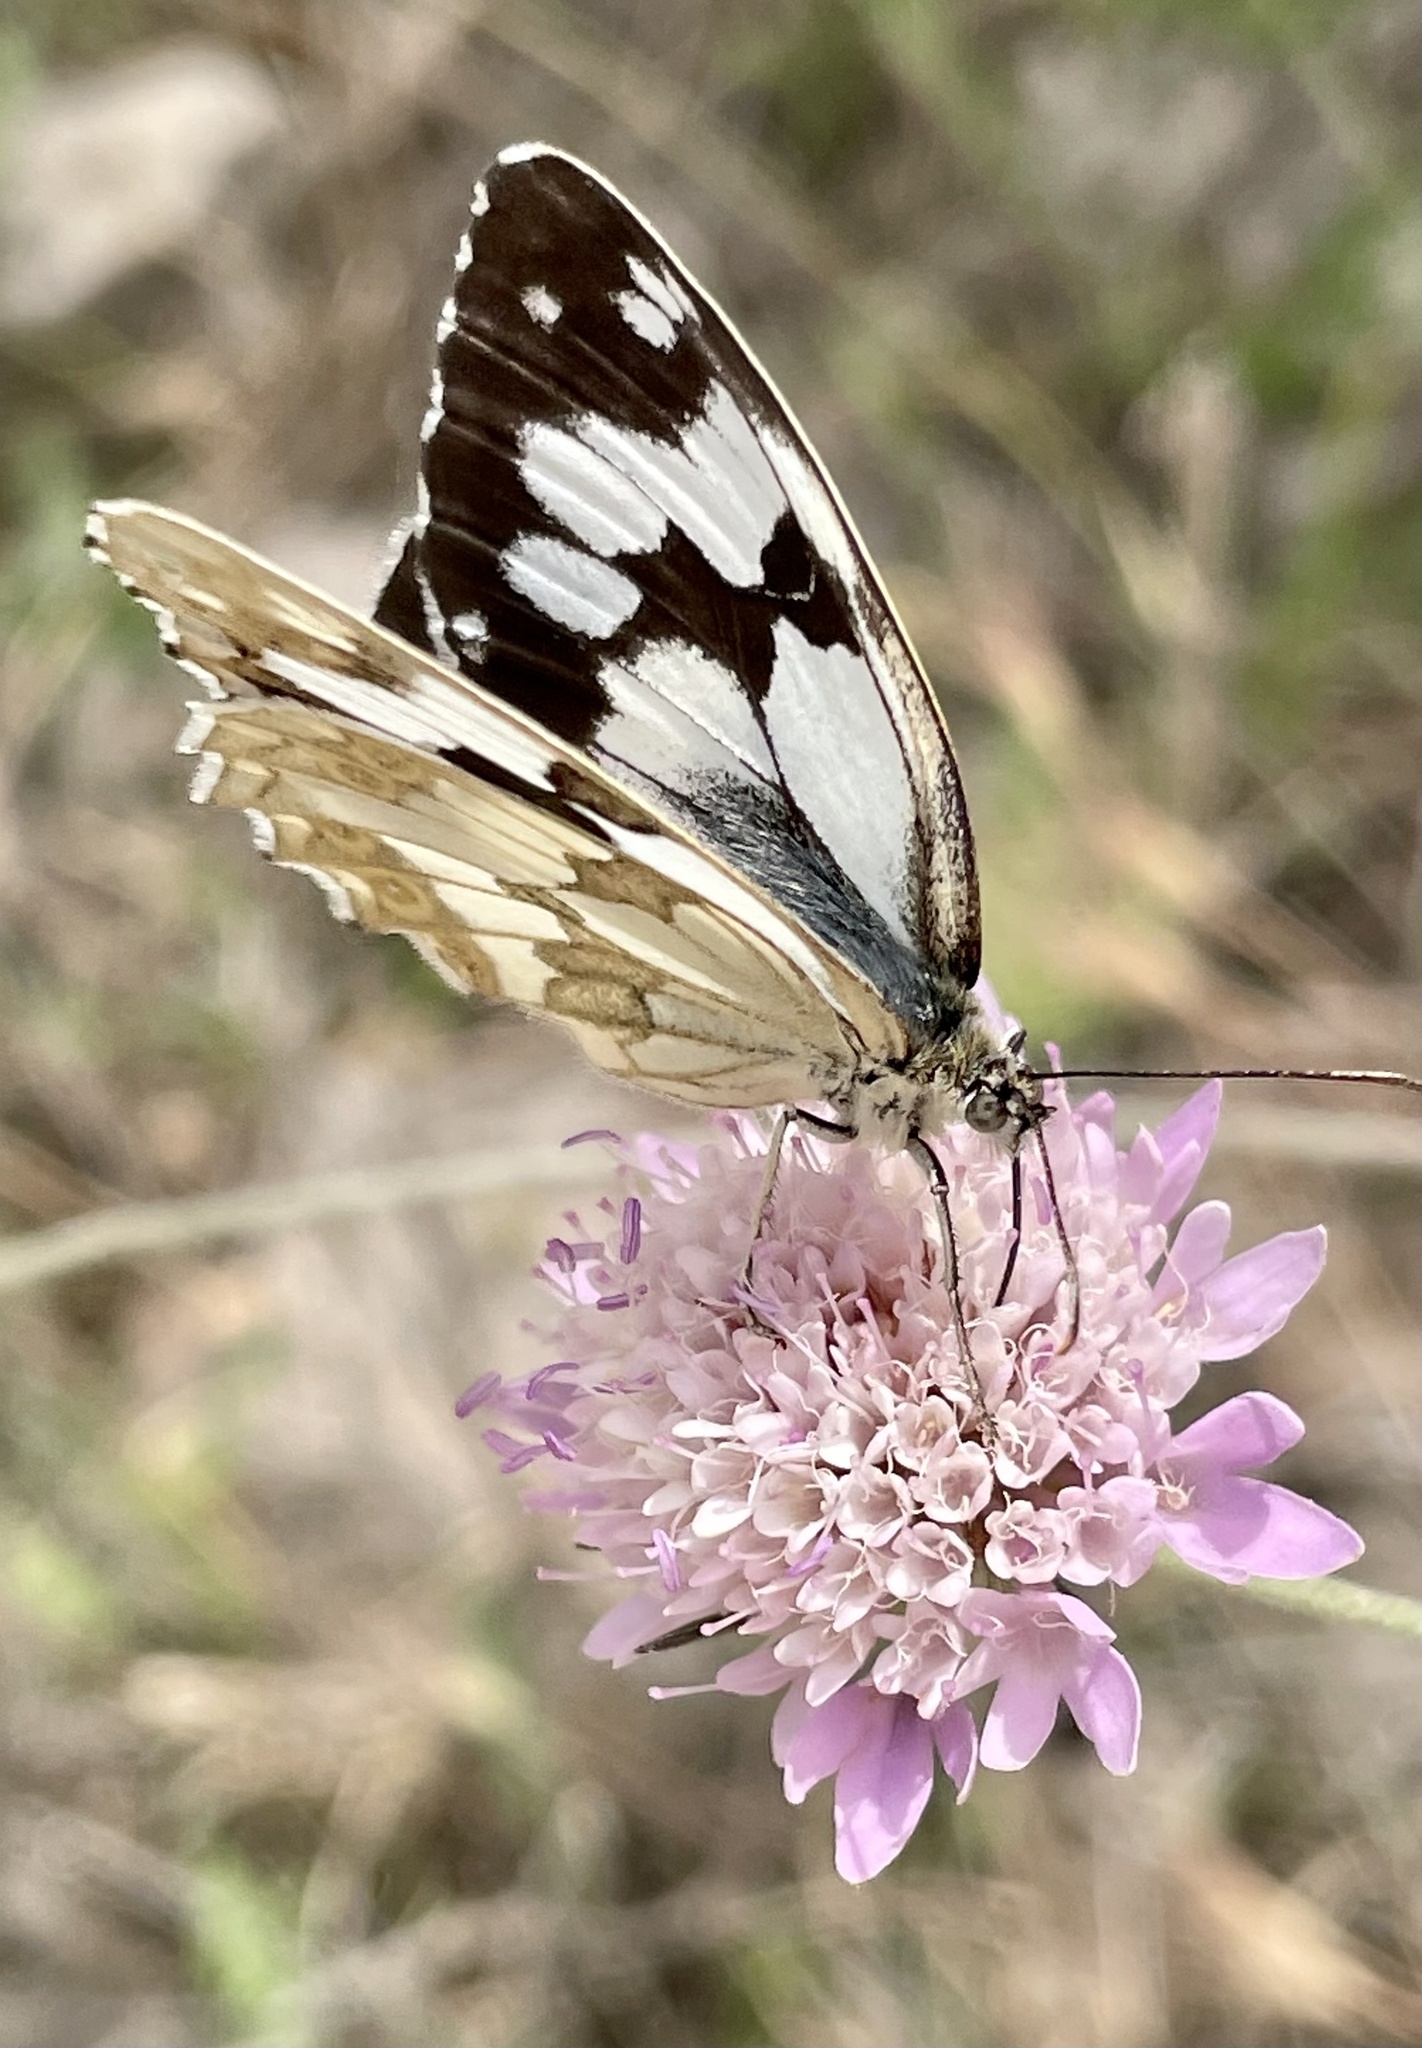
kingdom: Animalia
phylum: Arthropoda
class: Insecta
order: Lepidoptera
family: Nymphalidae
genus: Melanargia
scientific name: Melanargia lachesis
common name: Iberian marbled white
